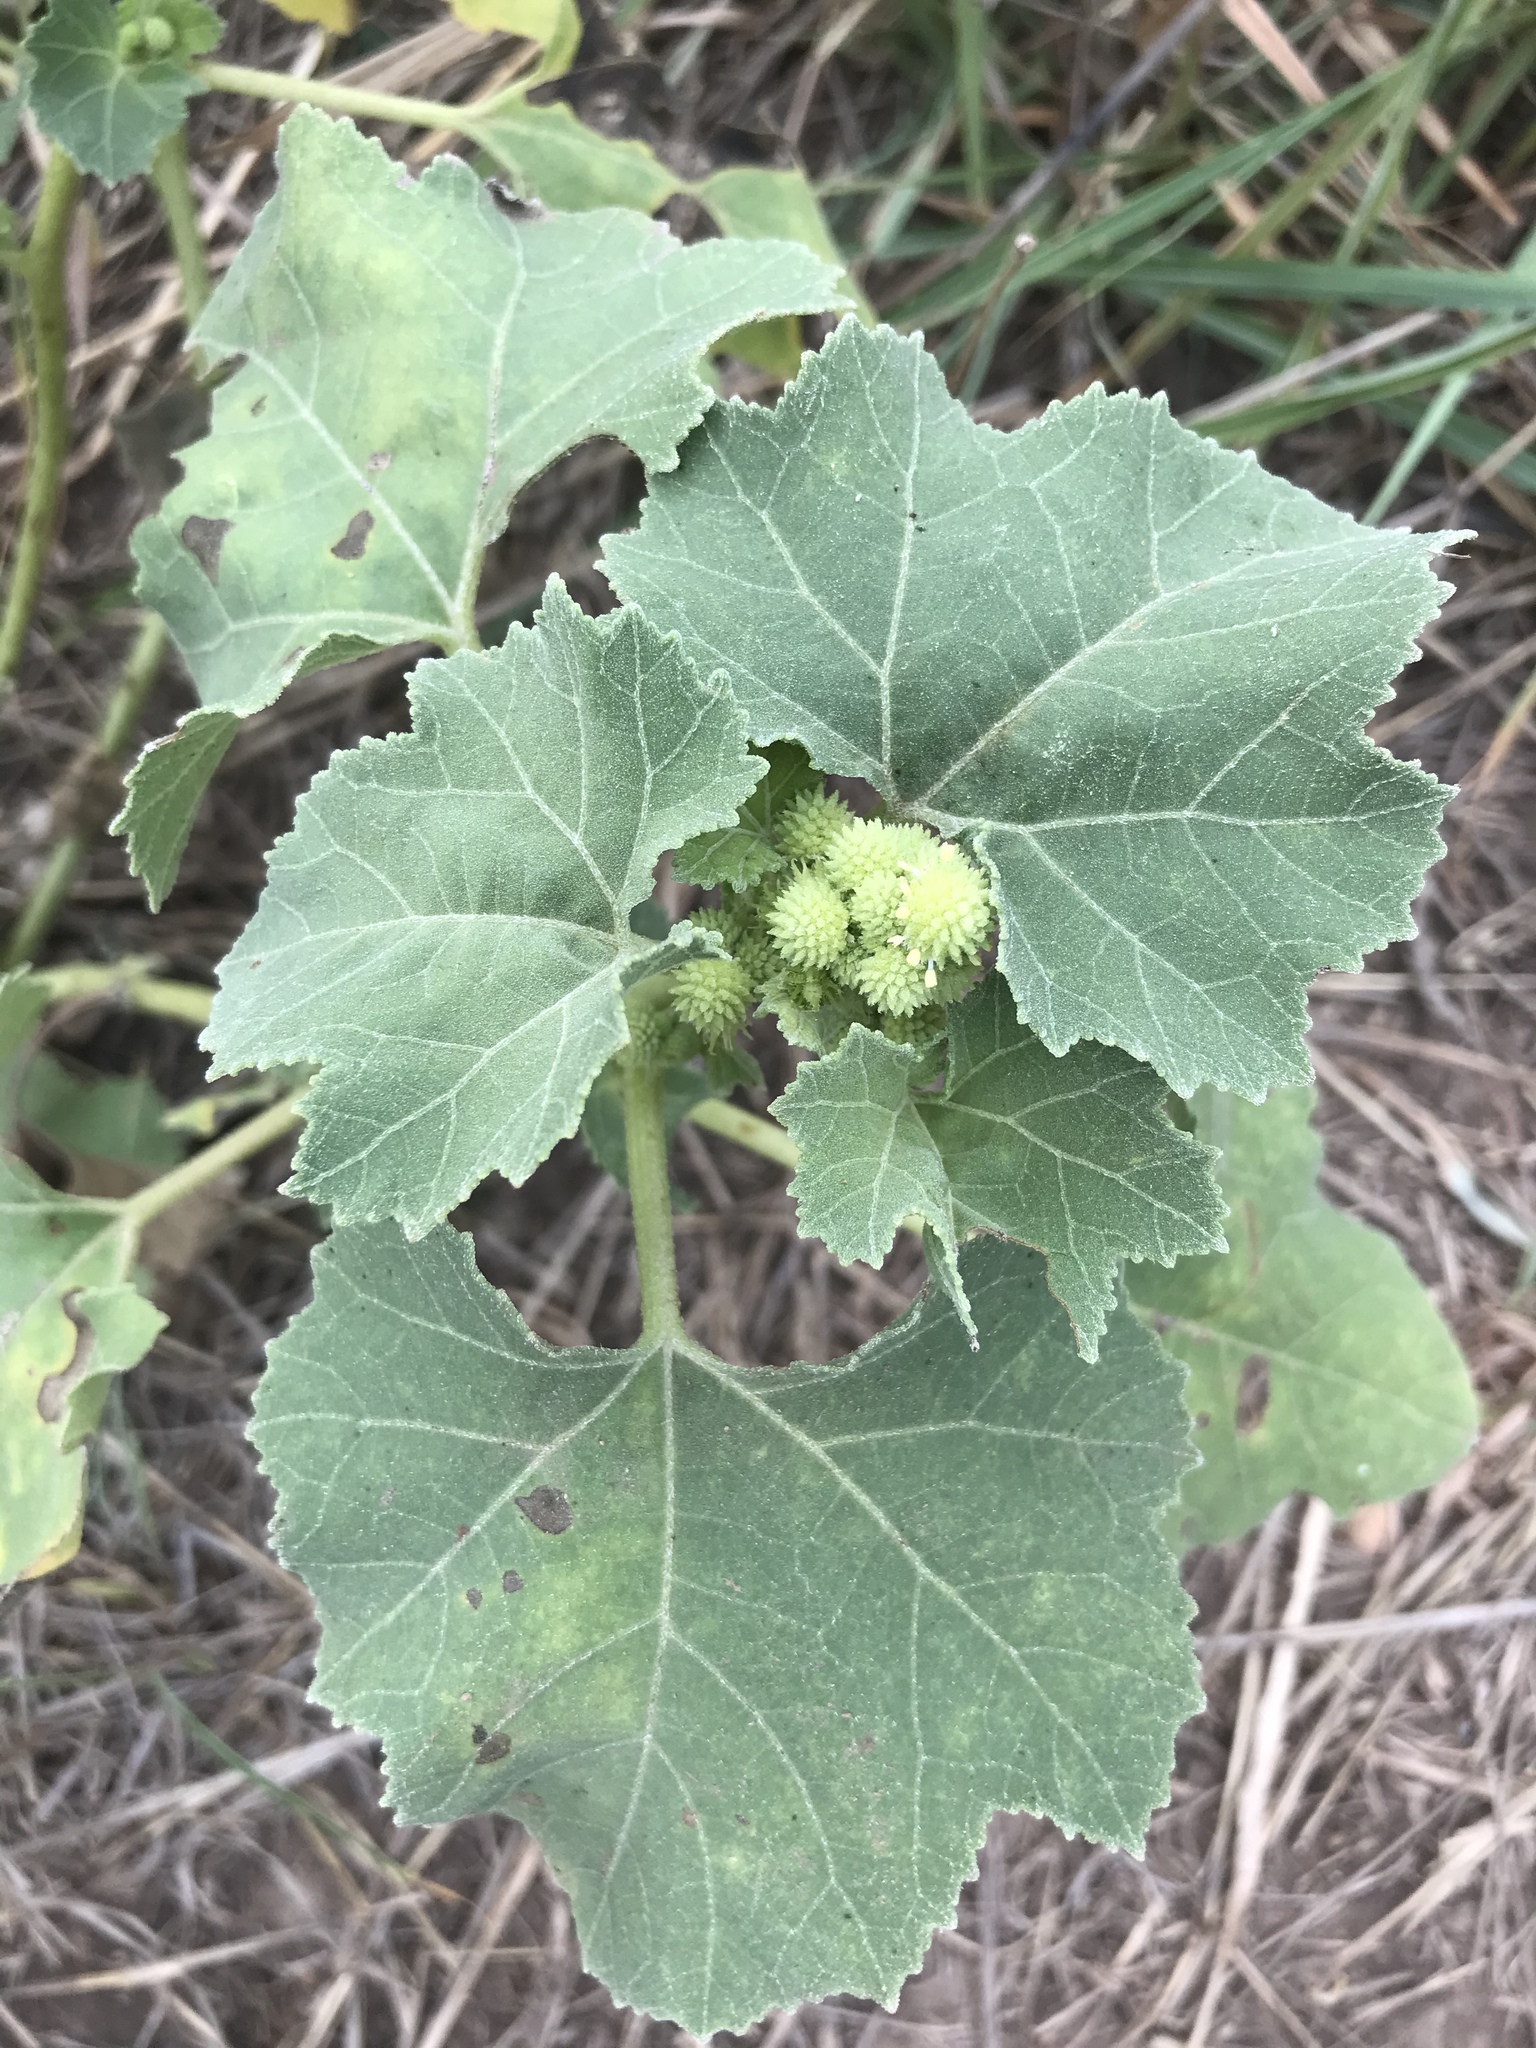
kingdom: Plantae
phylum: Tracheophyta
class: Magnoliopsida
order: Asterales
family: Asteraceae
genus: Xanthium
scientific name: Xanthium strumarium
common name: Rough cocklebur
